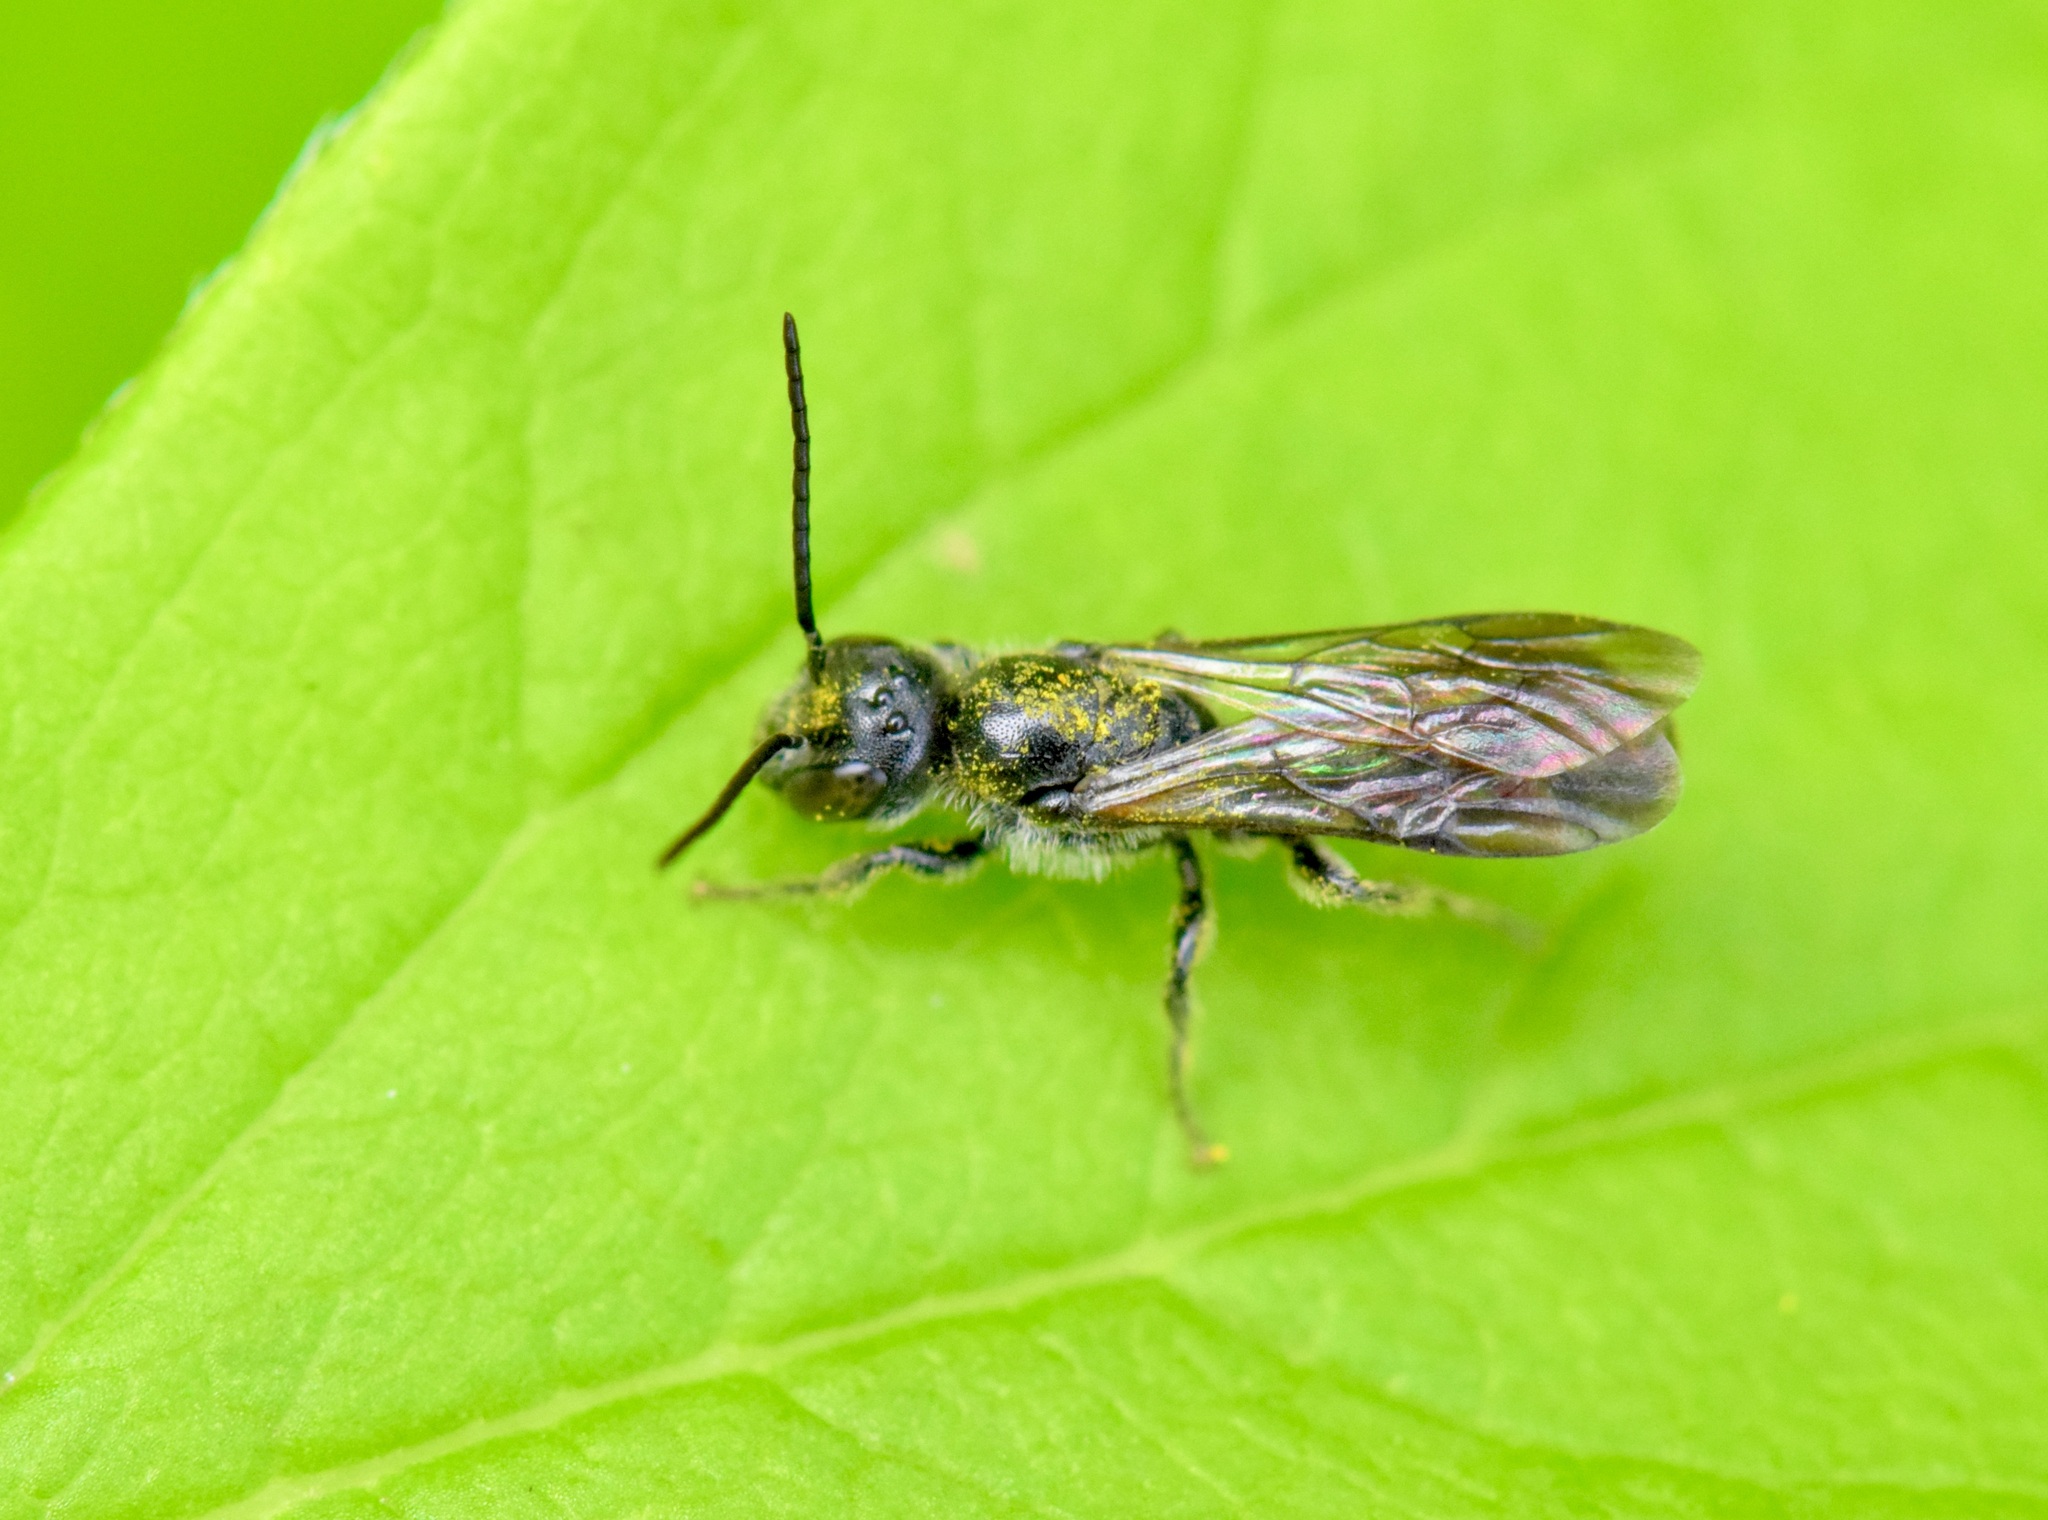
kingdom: Animalia
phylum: Arthropoda
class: Insecta
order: Hymenoptera
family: Megachilidae
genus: Chelostoma
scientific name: Chelostoma philadelphi
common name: Mock-orange scissor bee
